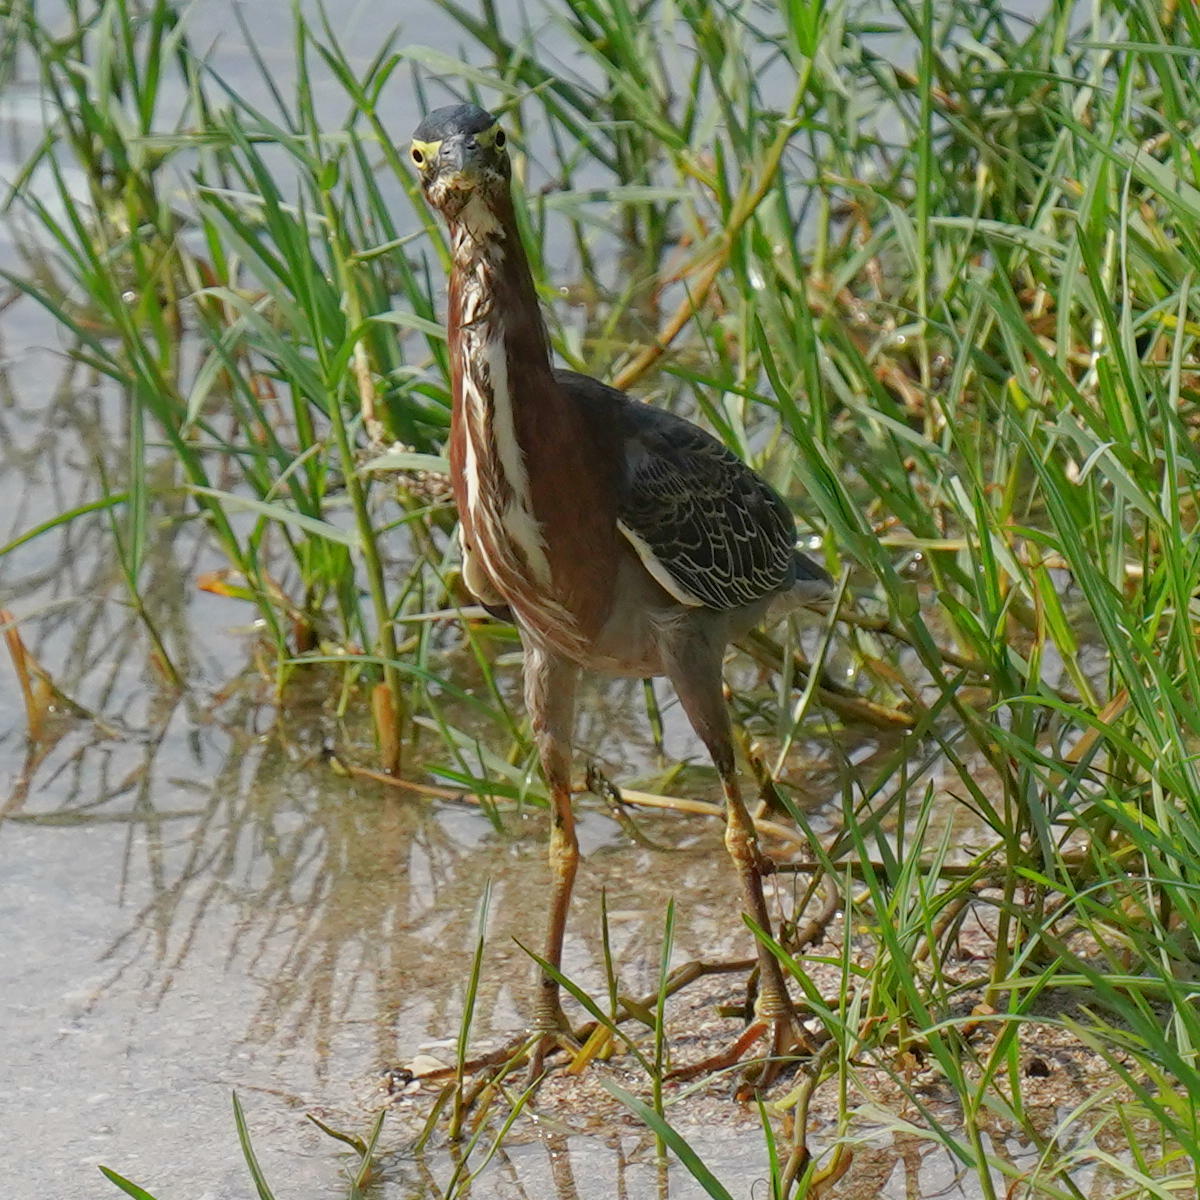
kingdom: Animalia
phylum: Chordata
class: Aves
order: Pelecaniformes
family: Ardeidae
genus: Butorides
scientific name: Butorides virescens
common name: Green heron
